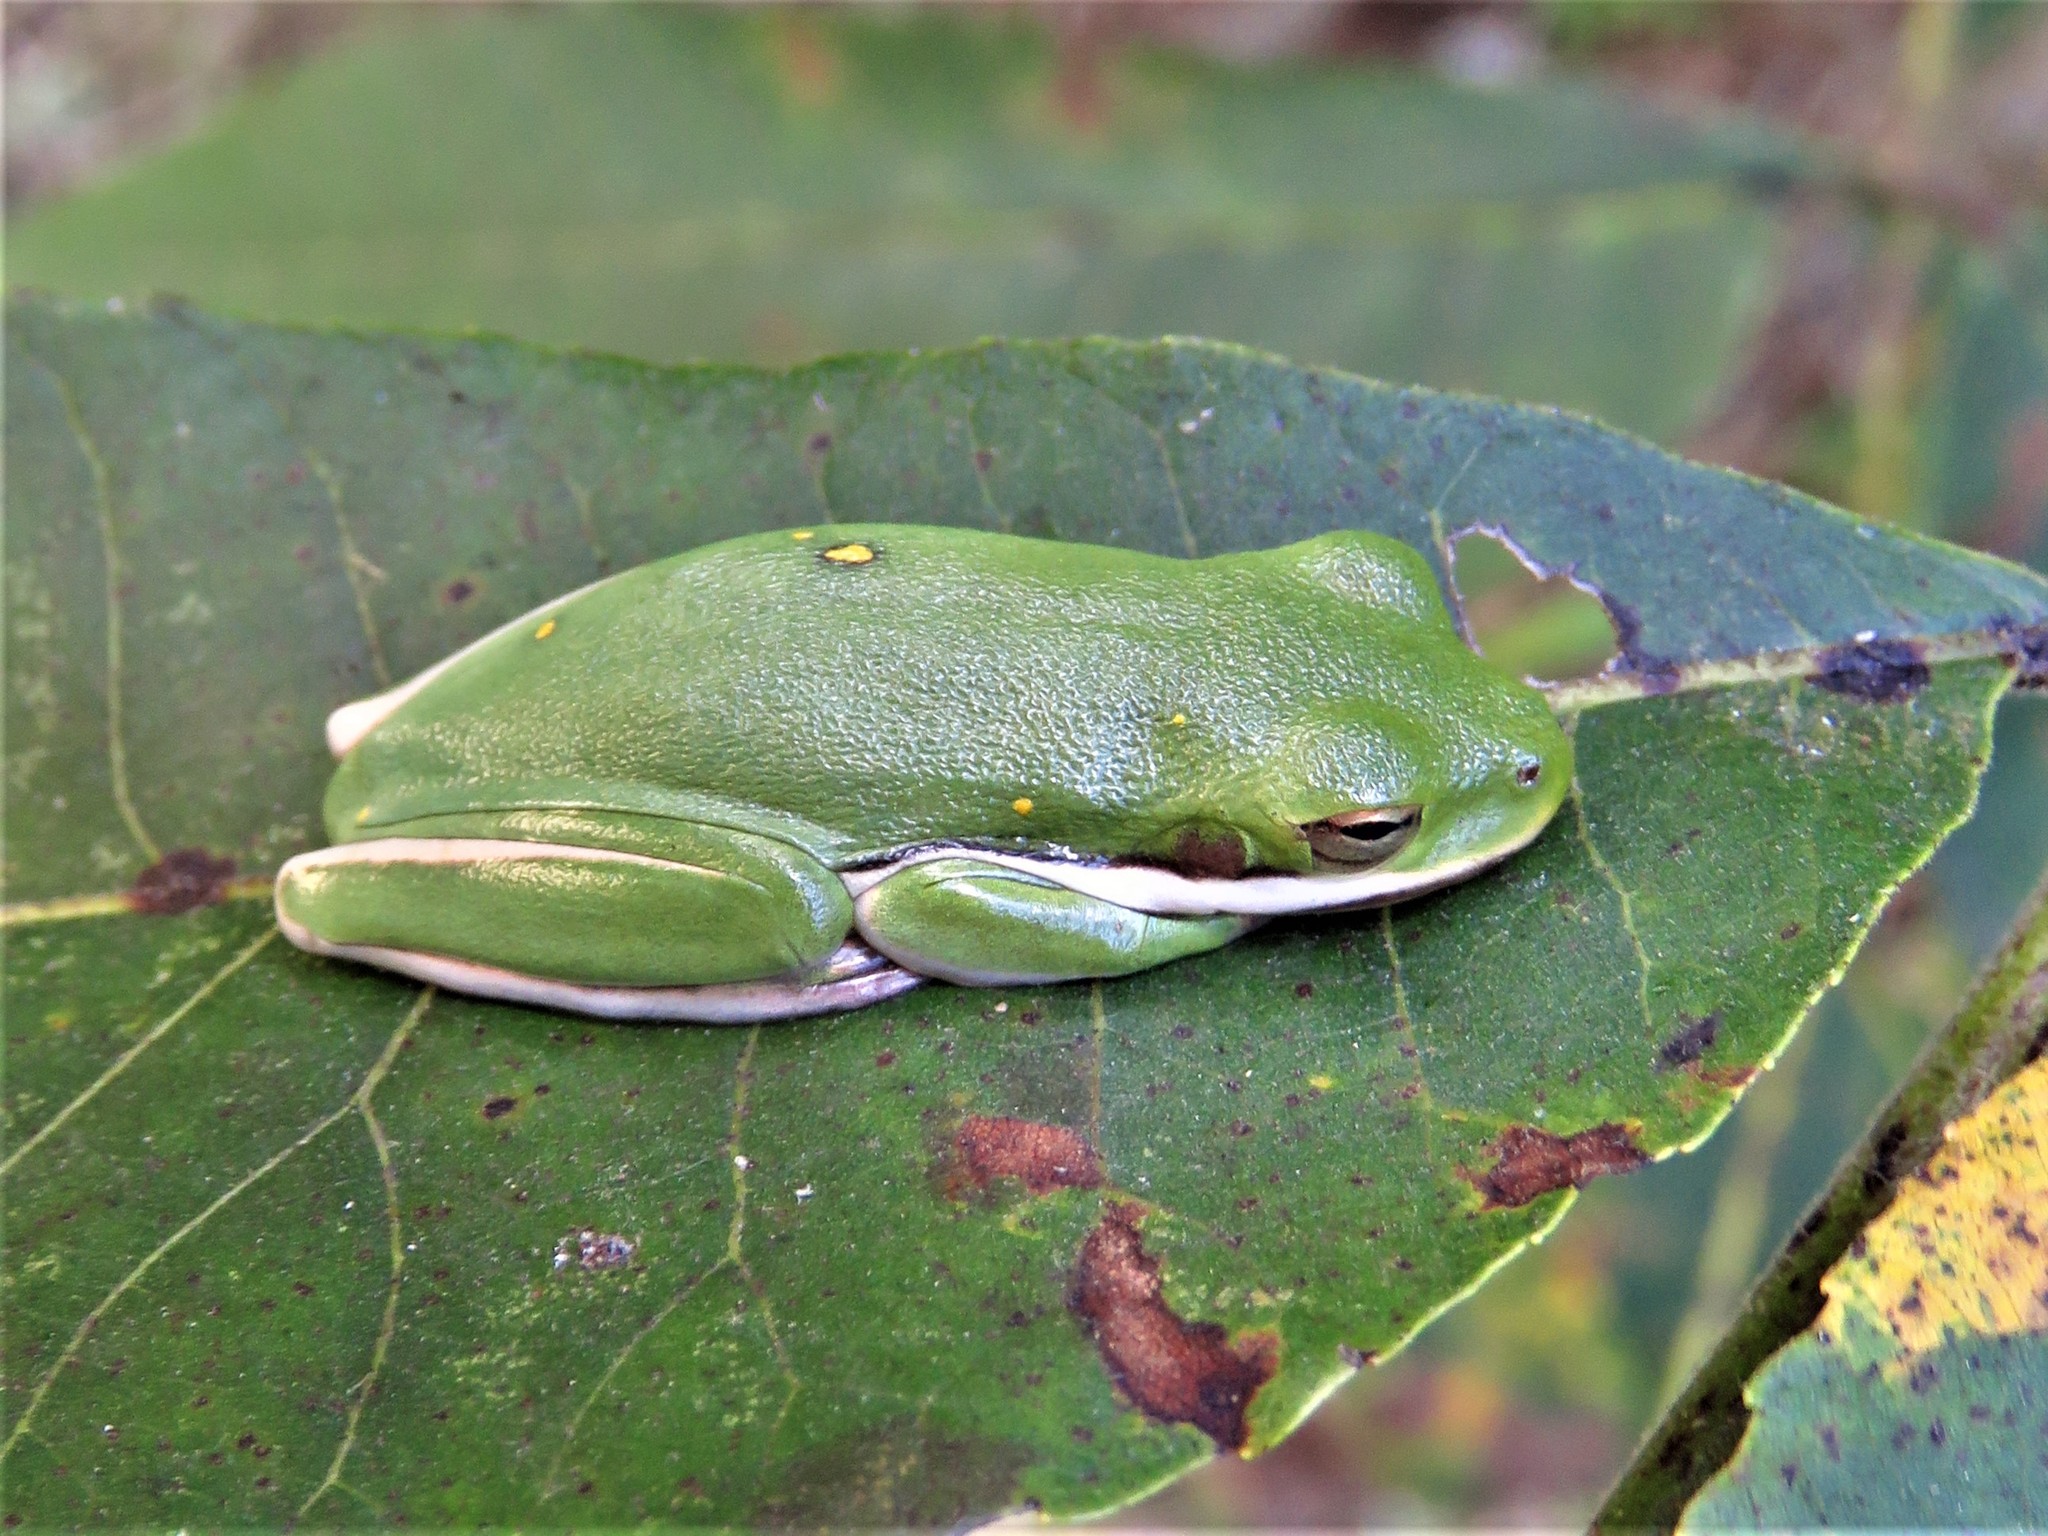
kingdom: Animalia
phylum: Chordata
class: Amphibia
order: Anura
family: Hylidae
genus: Dryophytes
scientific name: Dryophytes cinereus
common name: Green treefrog
